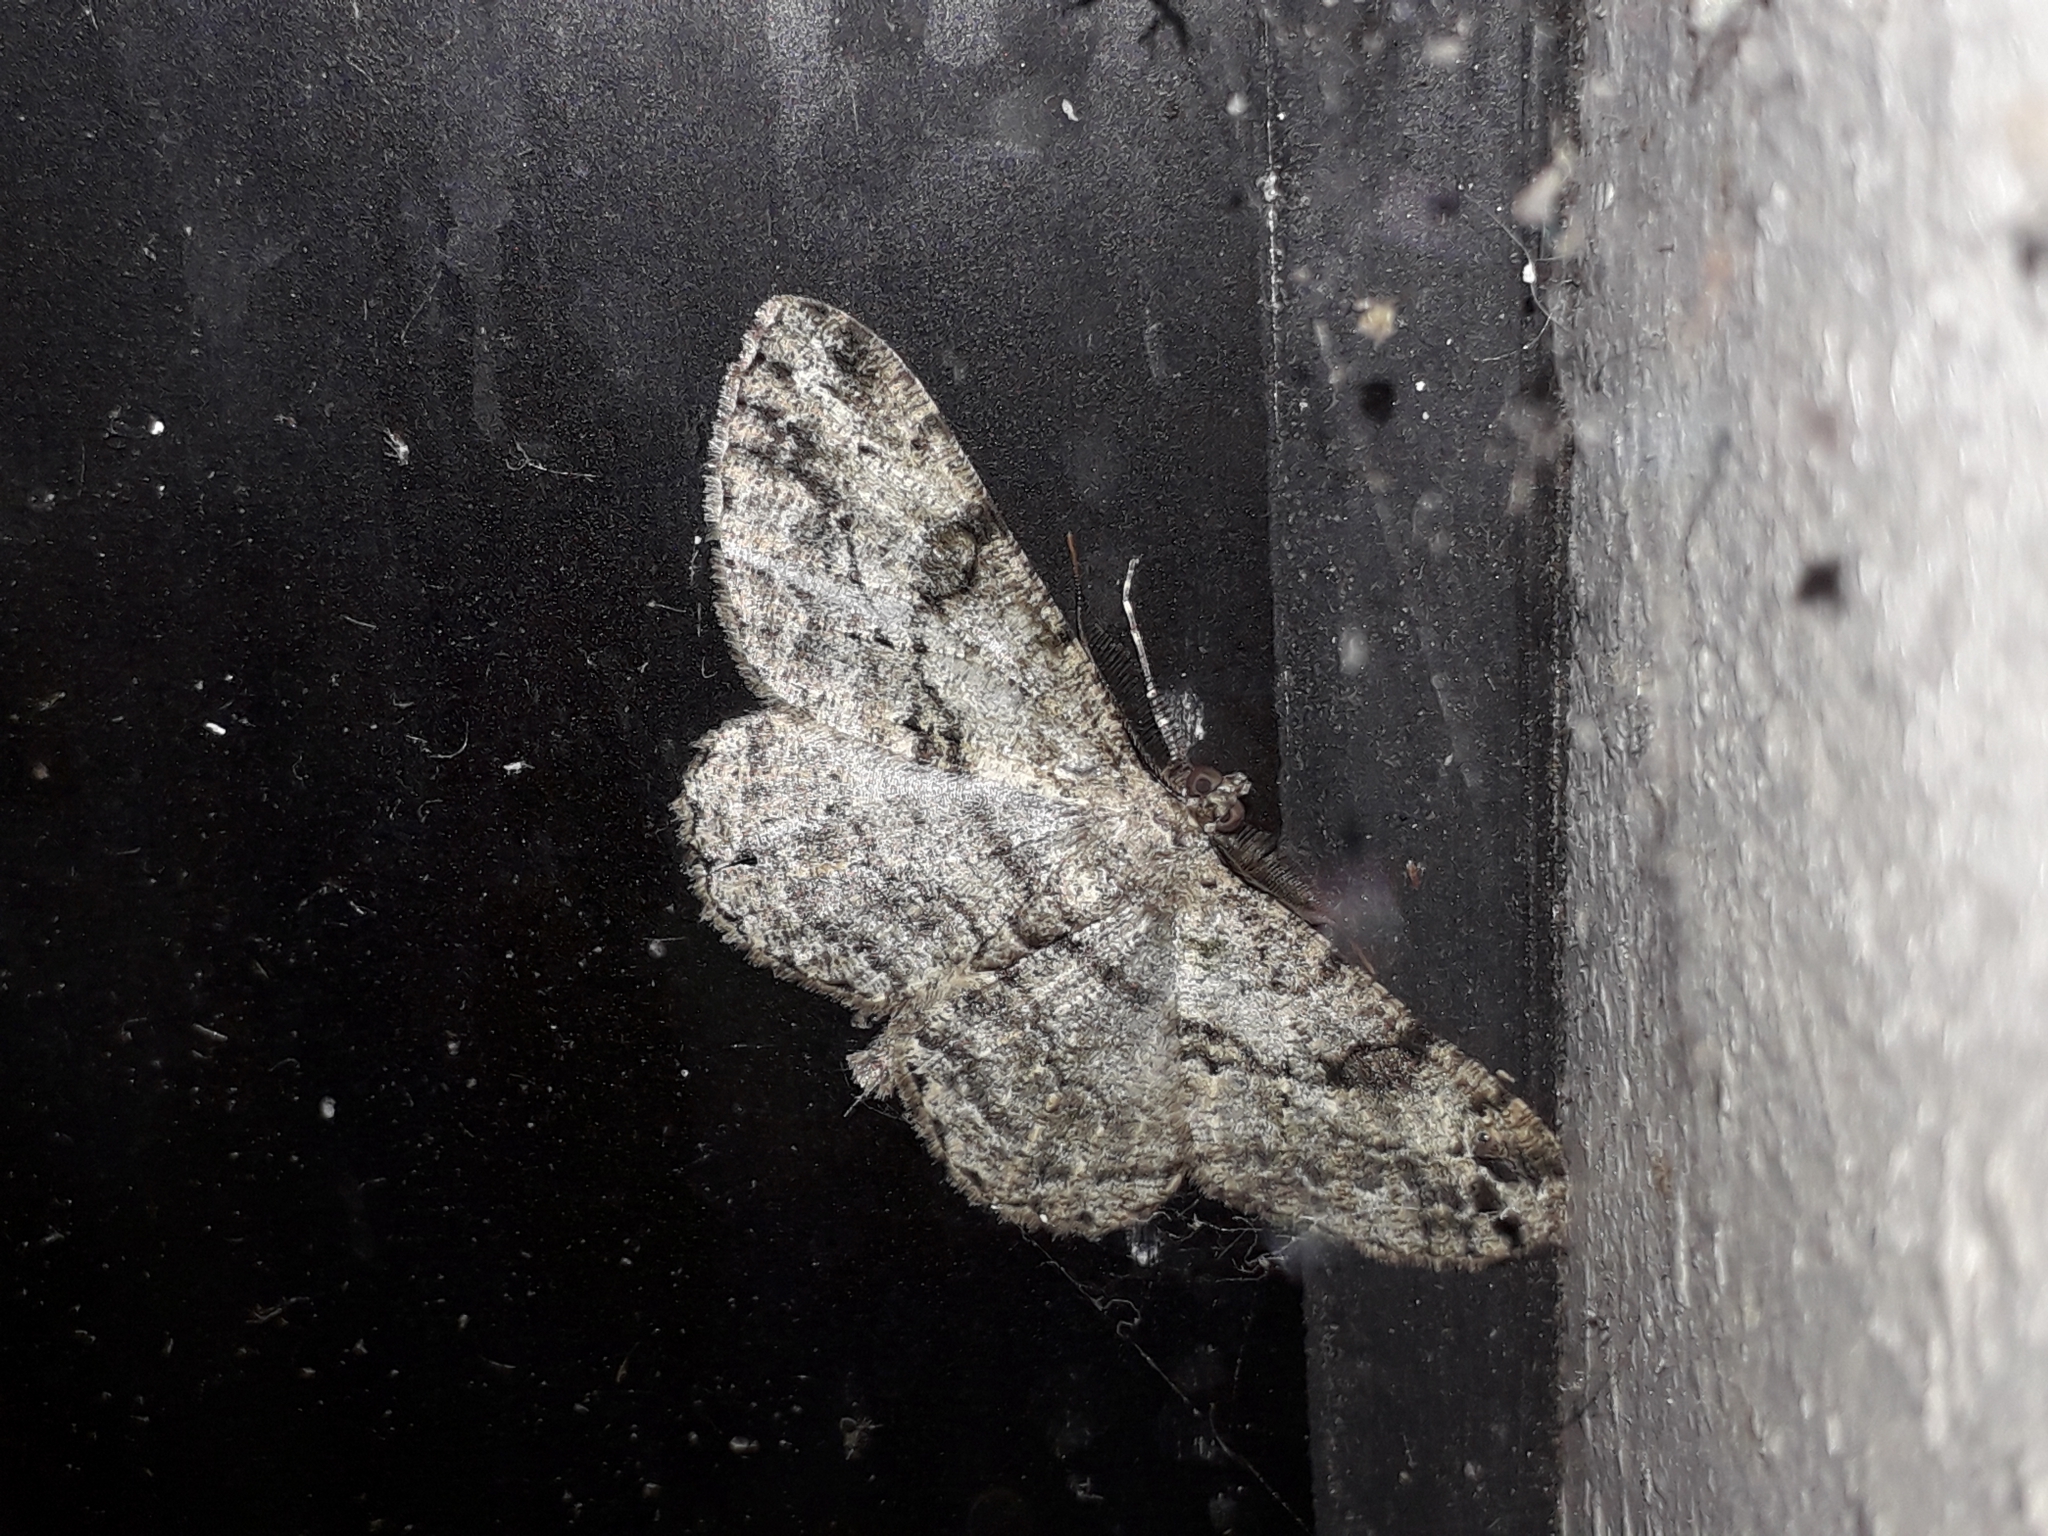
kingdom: Animalia
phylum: Arthropoda
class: Insecta
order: Lepidoptera
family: Geometridae
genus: Peribatodes
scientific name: Peribatodes rhomboidaria
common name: Willow beauty
